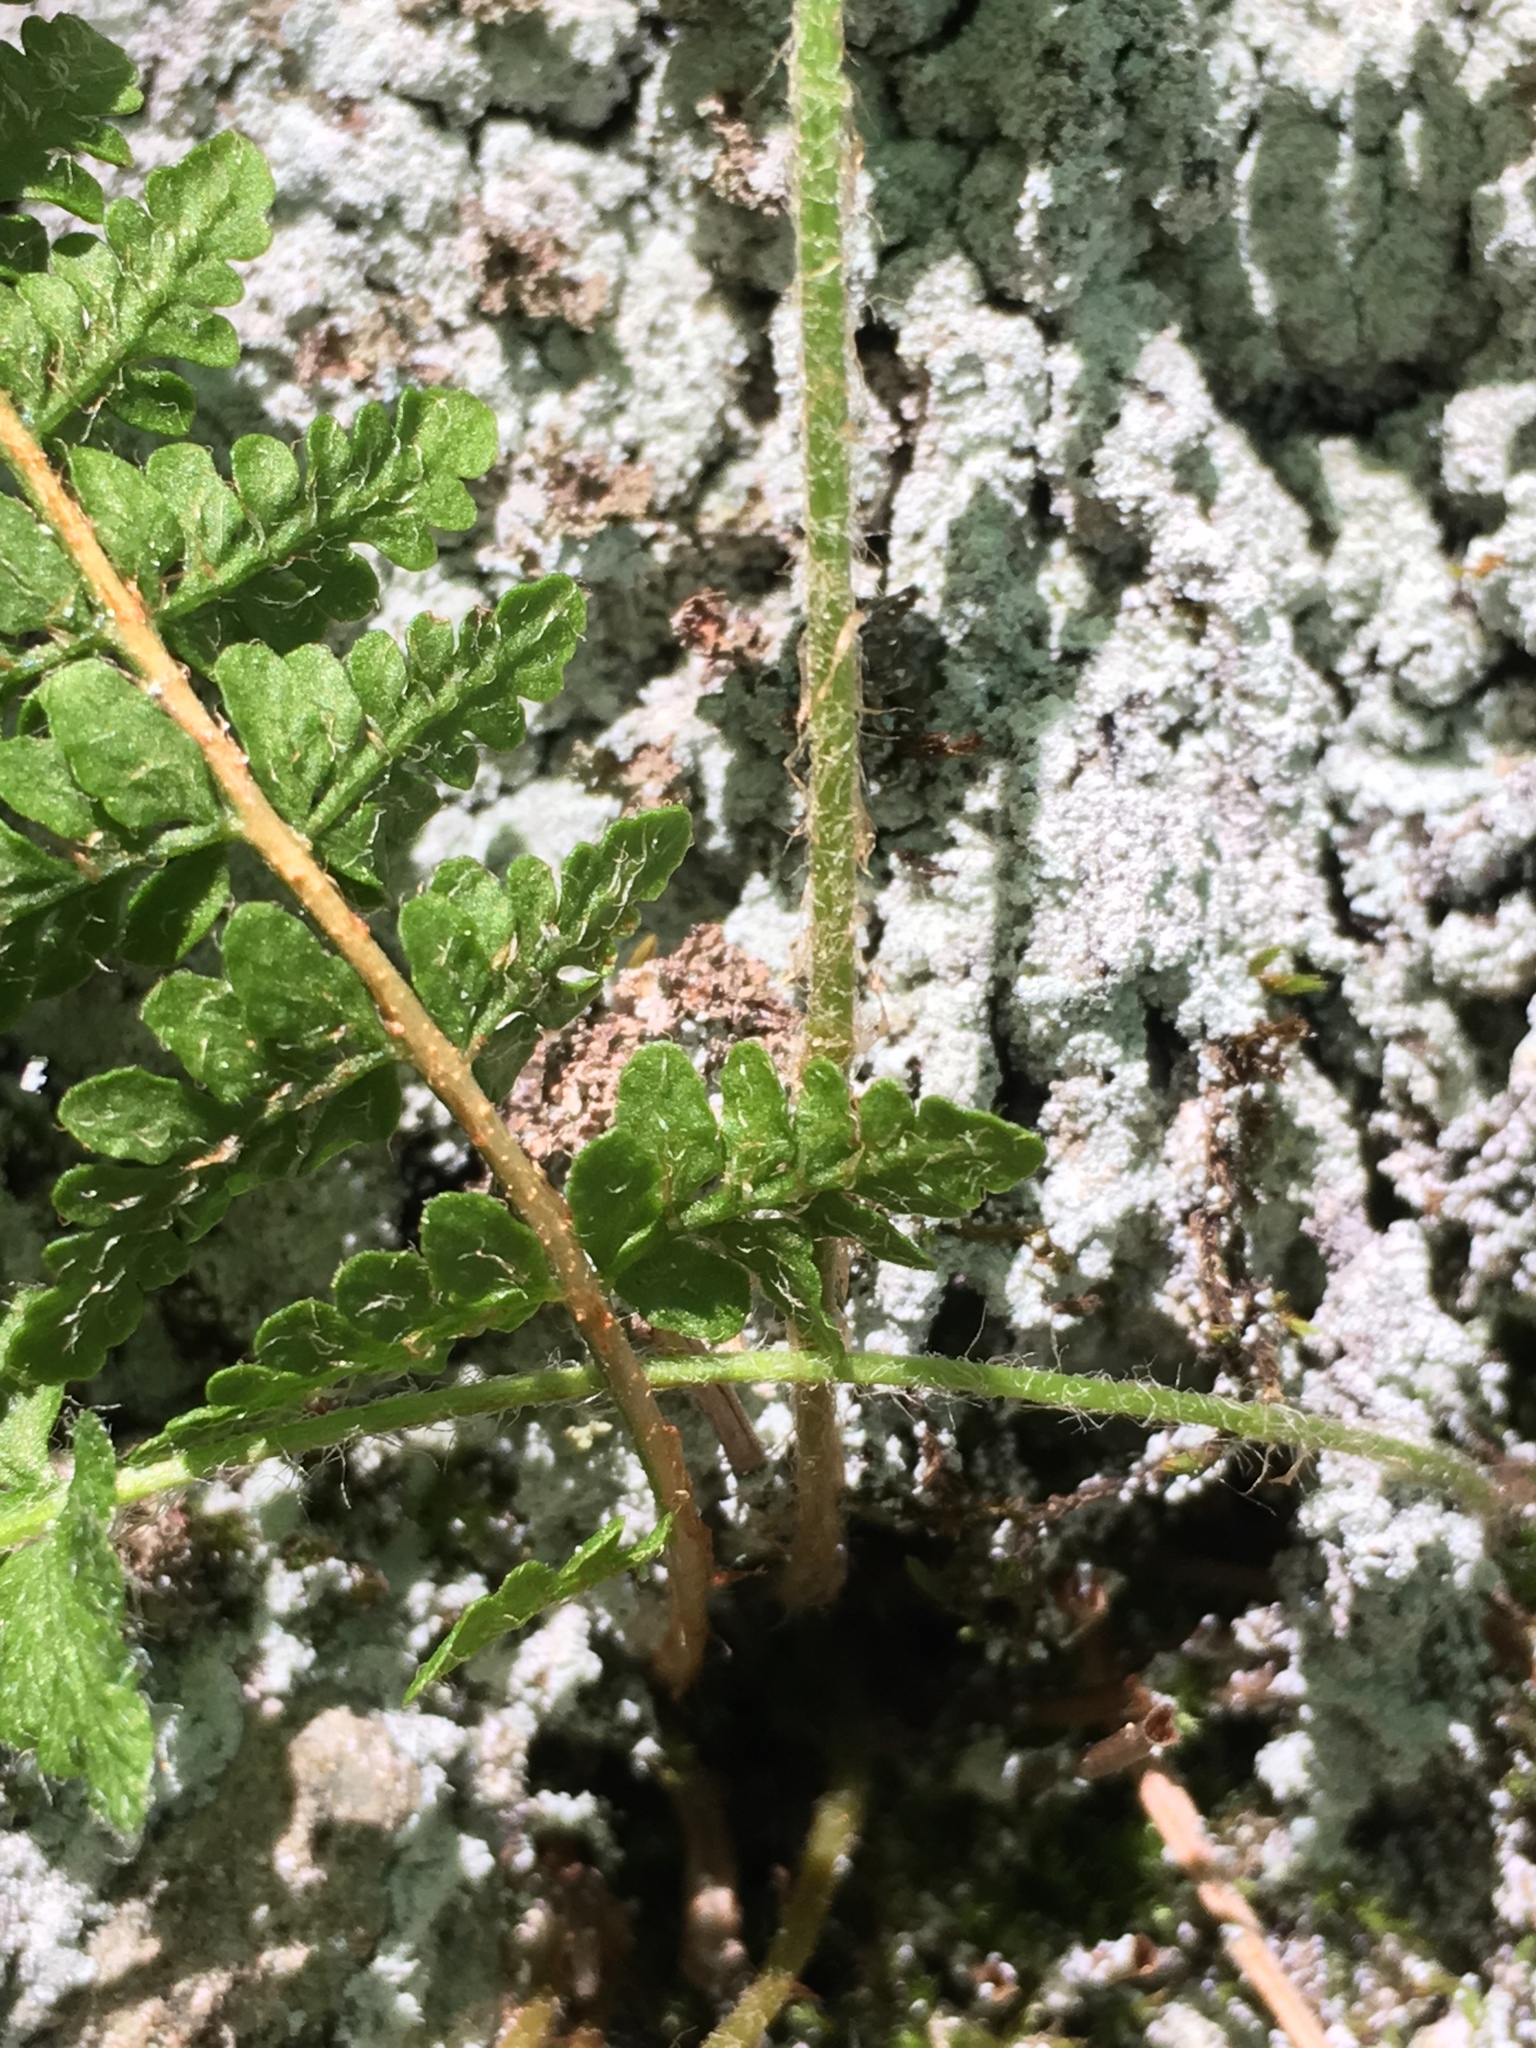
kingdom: Plantae
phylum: Tracheophyta
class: Polypodiopsida
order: Polypodiales
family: Woodsiaceae
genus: Woodsia
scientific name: Woodsia ilvensis
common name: Fragrant woodsia
